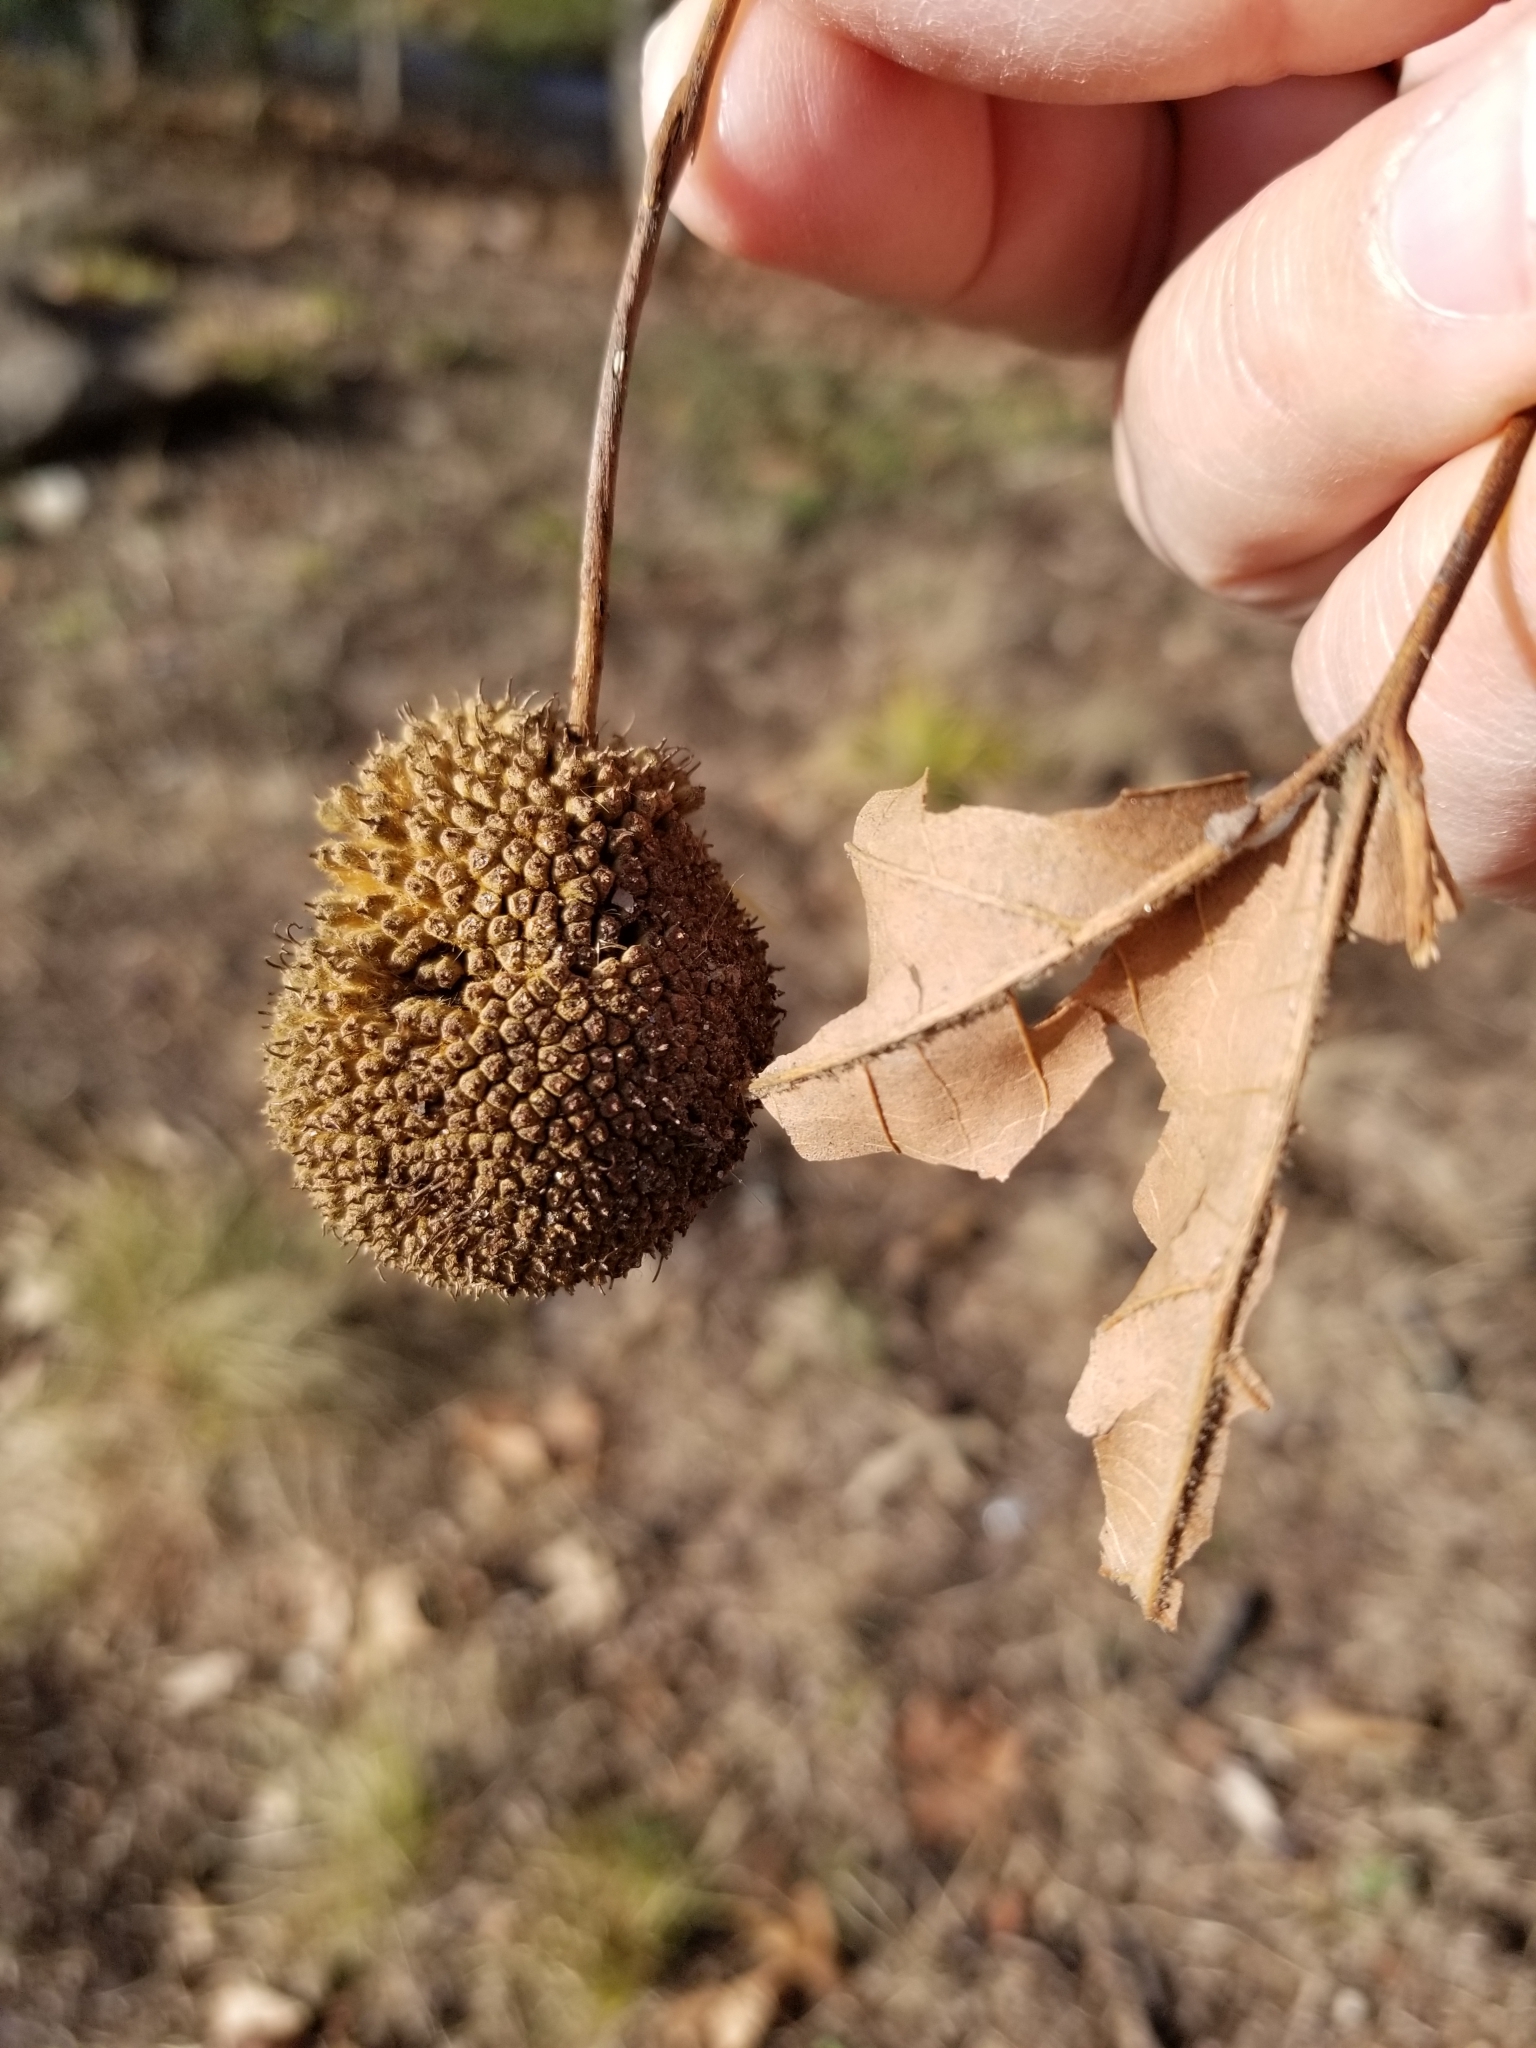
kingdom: Plantae
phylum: Tracheophyta
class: Magnoliopsida
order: Proteales
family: Platanaceae
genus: Platanus
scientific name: Platanus occidentalis
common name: American sycamore
